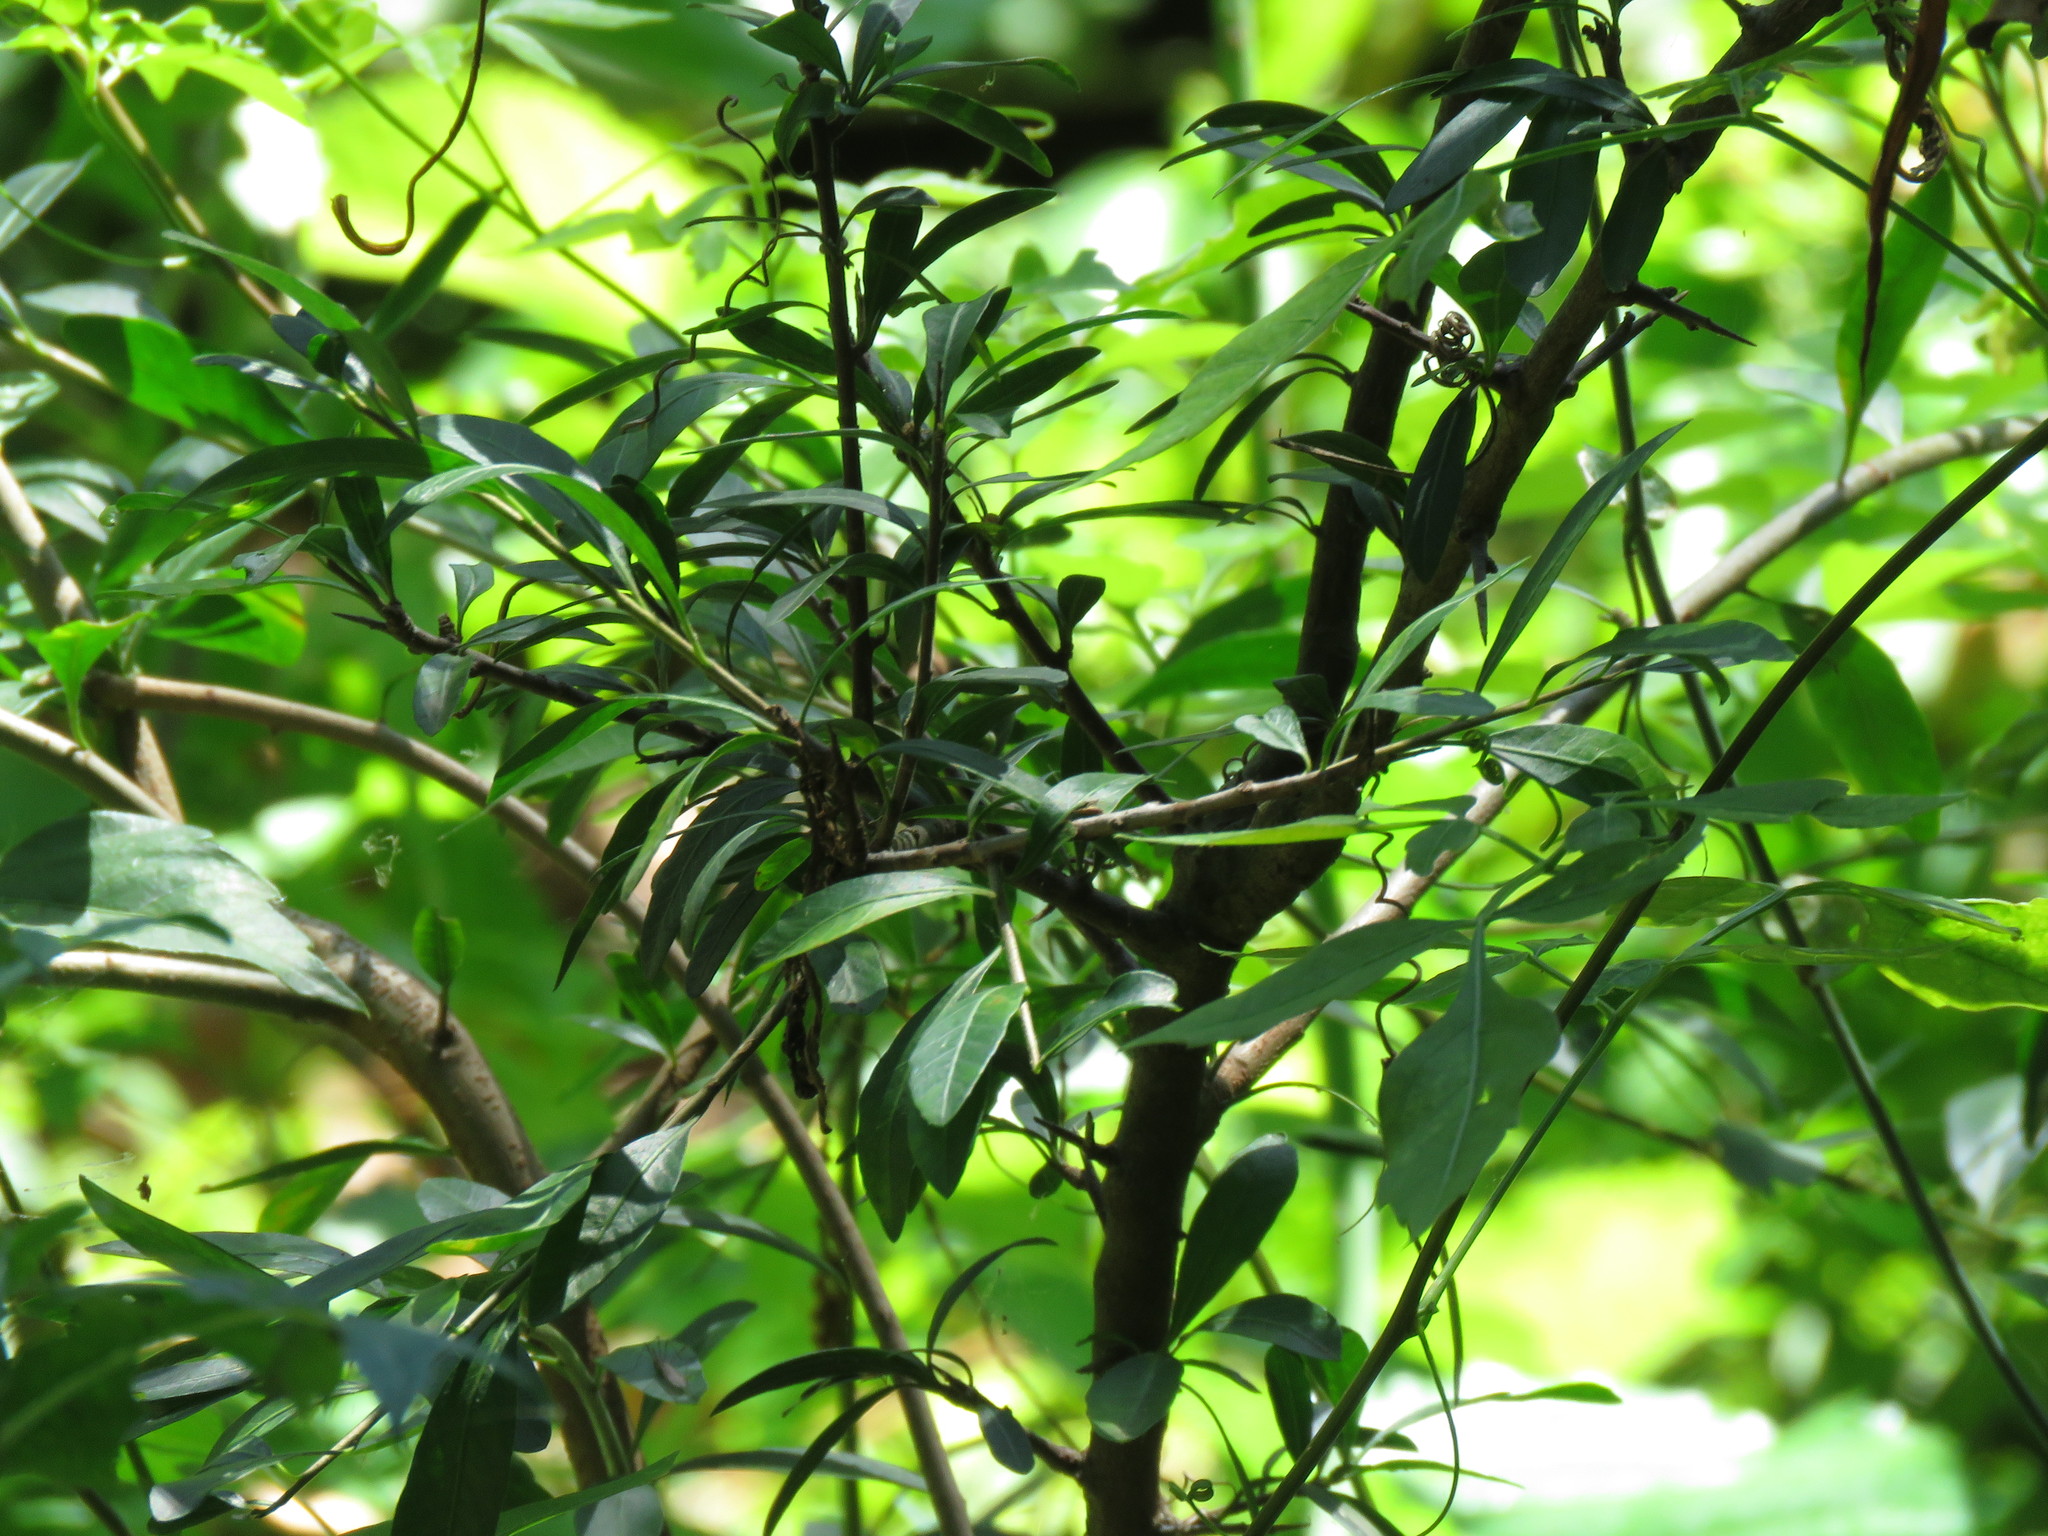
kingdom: Plantae
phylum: Tracheophyta
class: Magnoliopsida
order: Sapindales
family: Anacardiaceae
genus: Schinus
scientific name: Schinus latifolia
